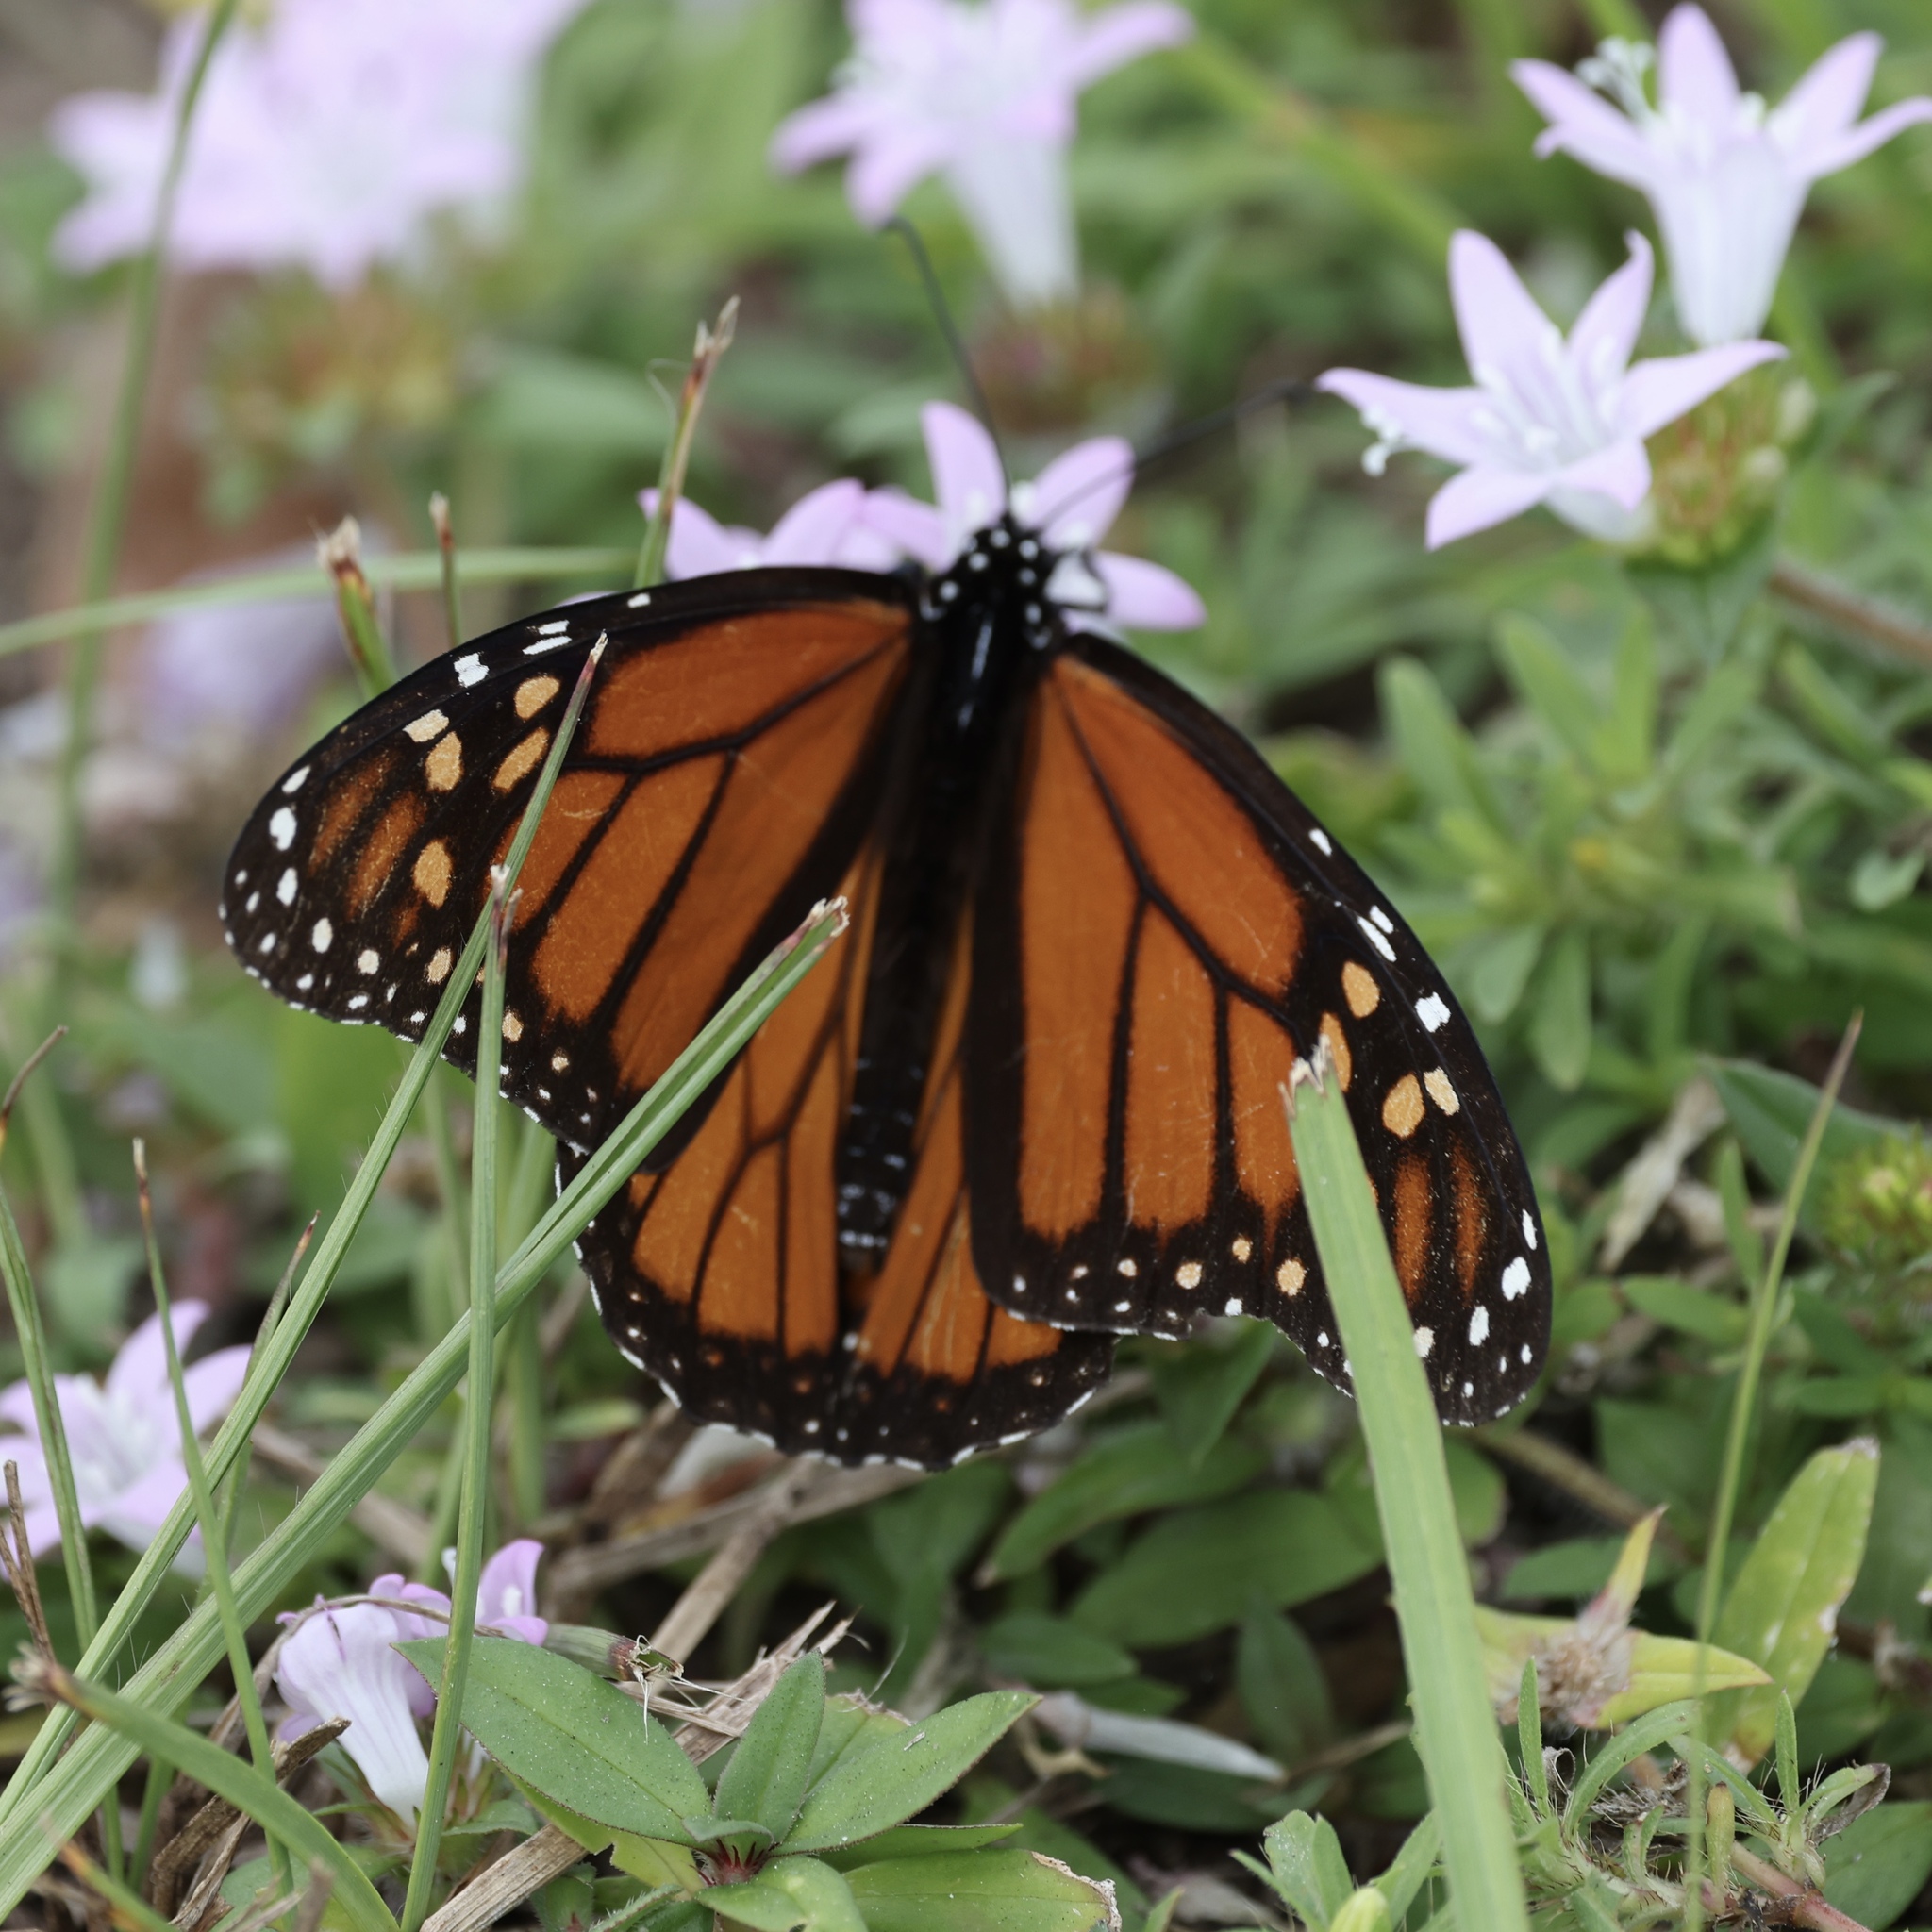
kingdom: Animalia
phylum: Arthropoda
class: Insecta
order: Lepidoptera
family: Nymphalidae
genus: Danaus
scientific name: Danaus plexippus
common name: Monarch
